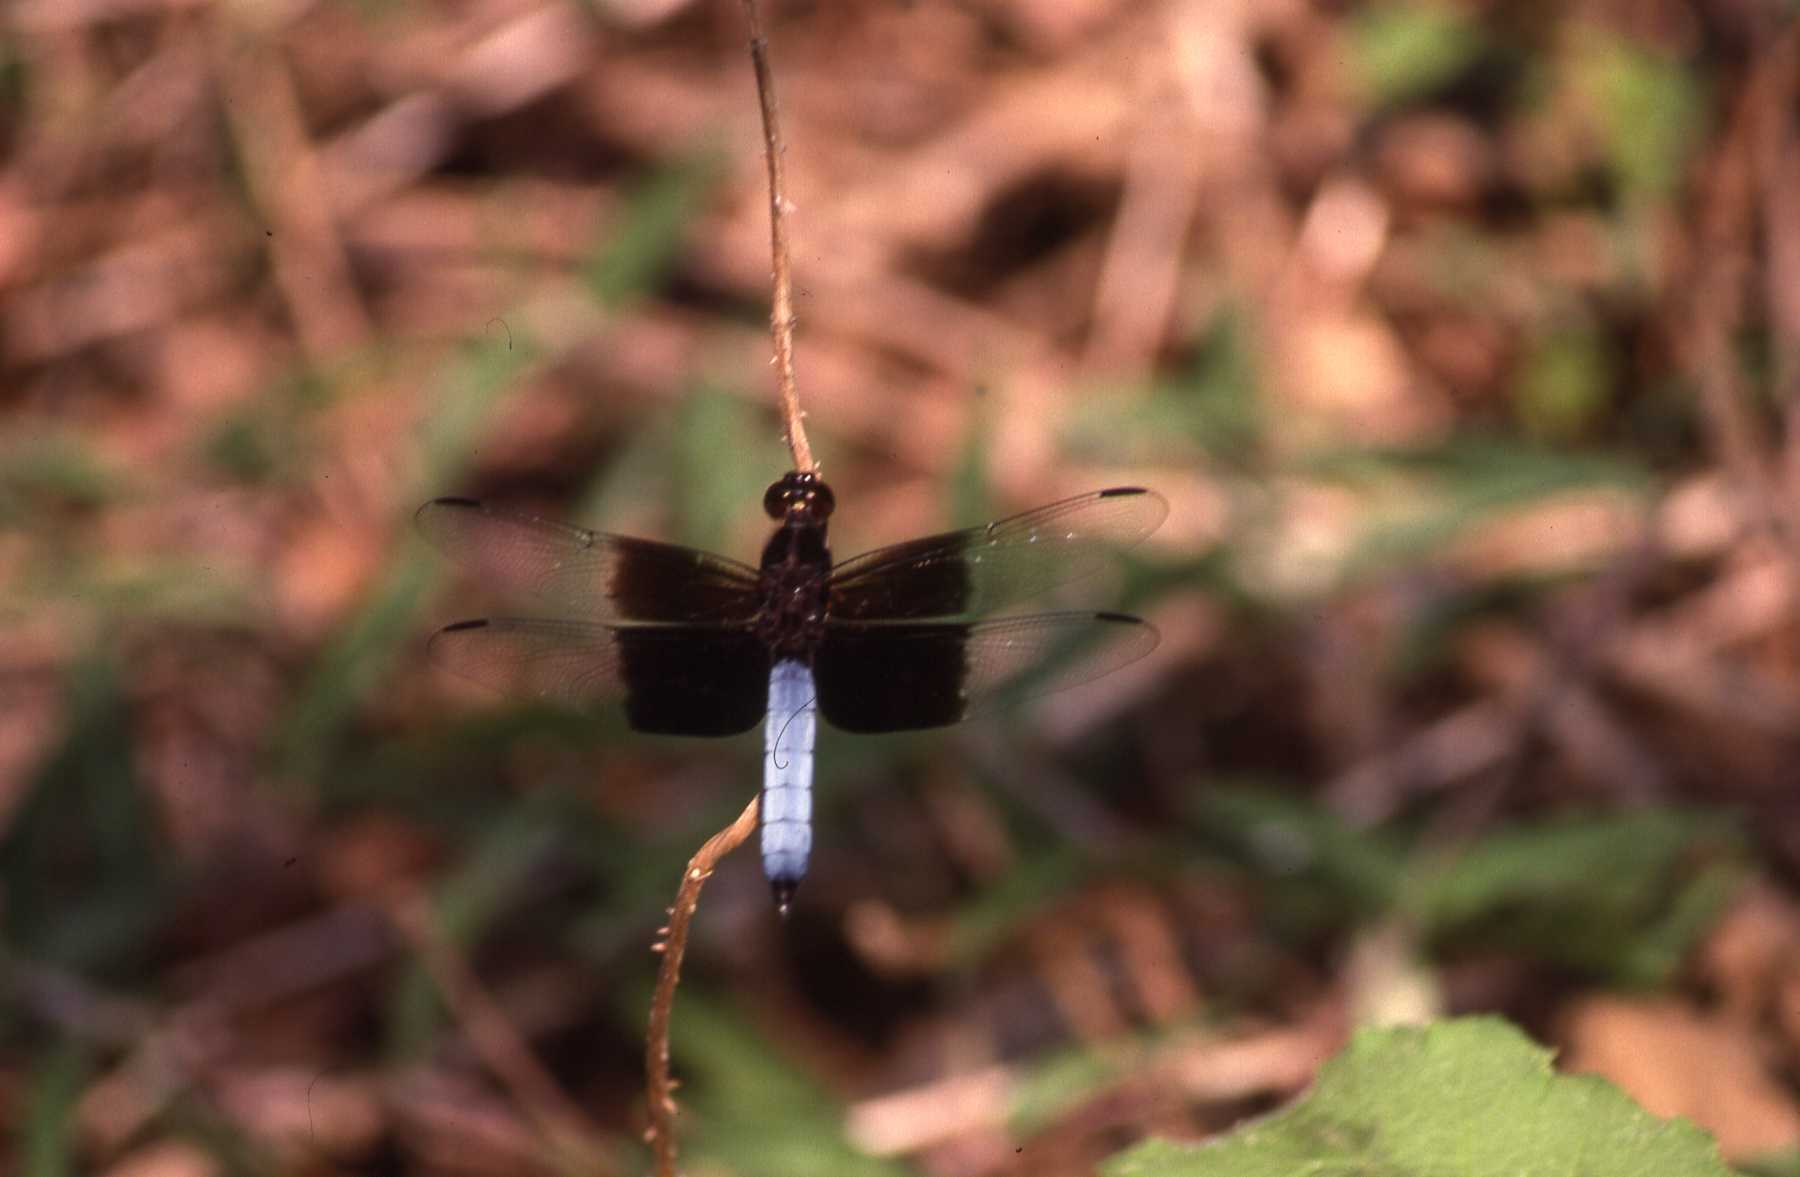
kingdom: Animalia
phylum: Arthropoda
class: Insecta
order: Odonata
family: Libellulidae
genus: Thermorthemis
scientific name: Thermorthemis madagascariensis
